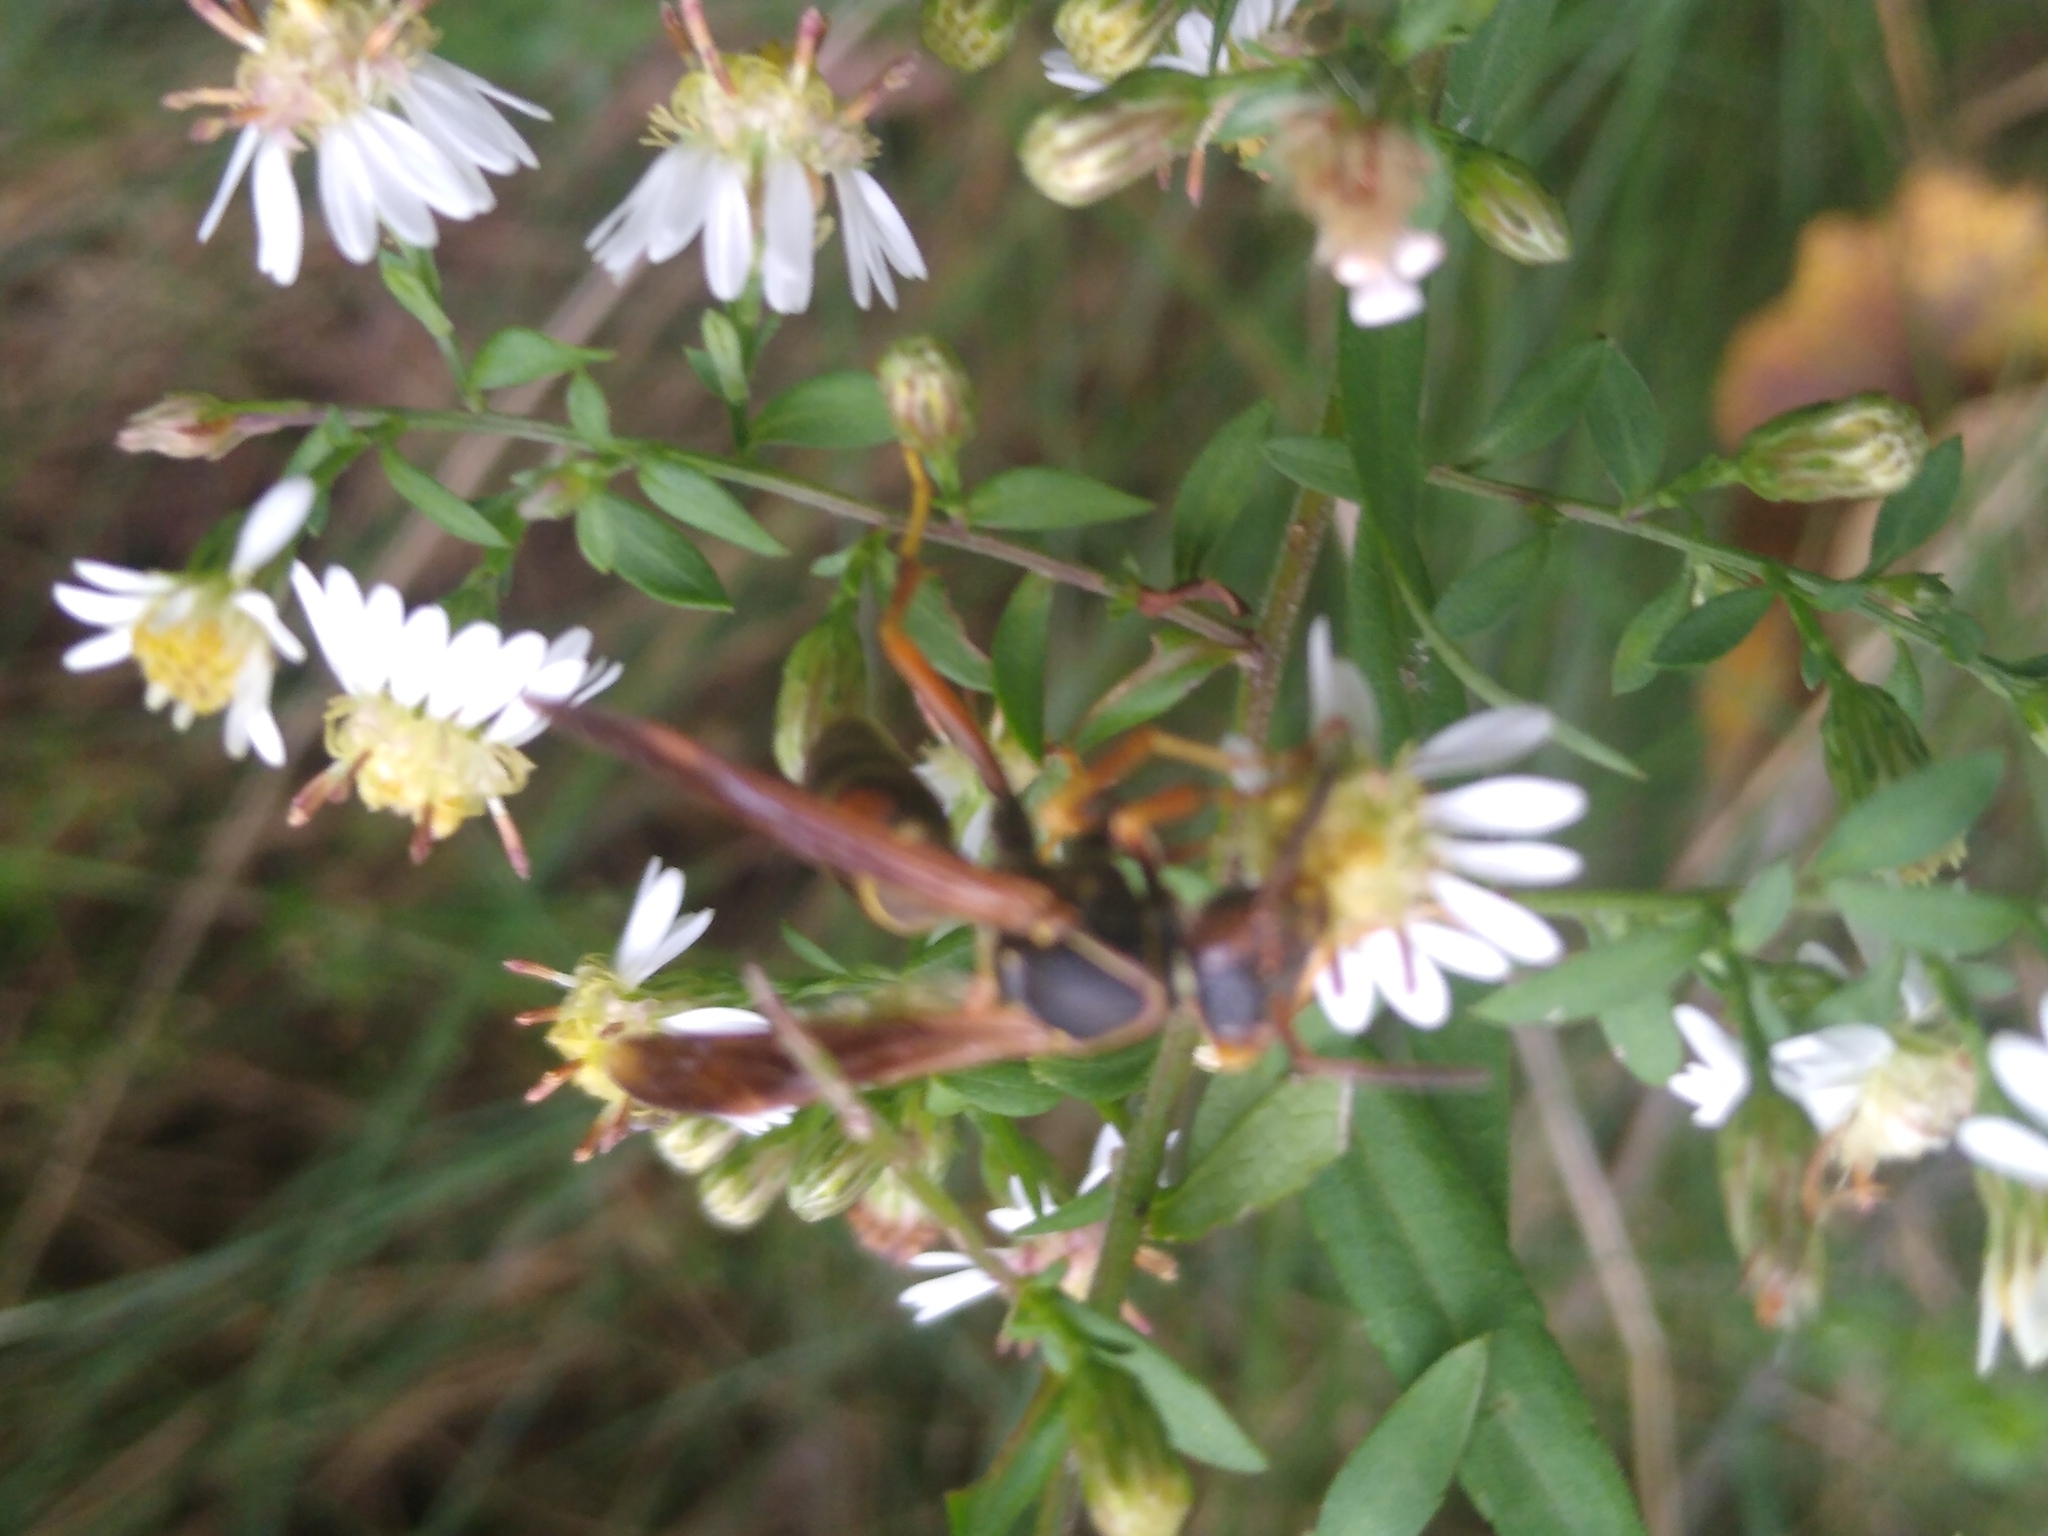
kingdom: Animalia
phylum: Arthropoda
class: Insecta
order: Hymenoptera
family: Eumenidae
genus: Polistes
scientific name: Polistes fuscatus
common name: Dark paper wasp
